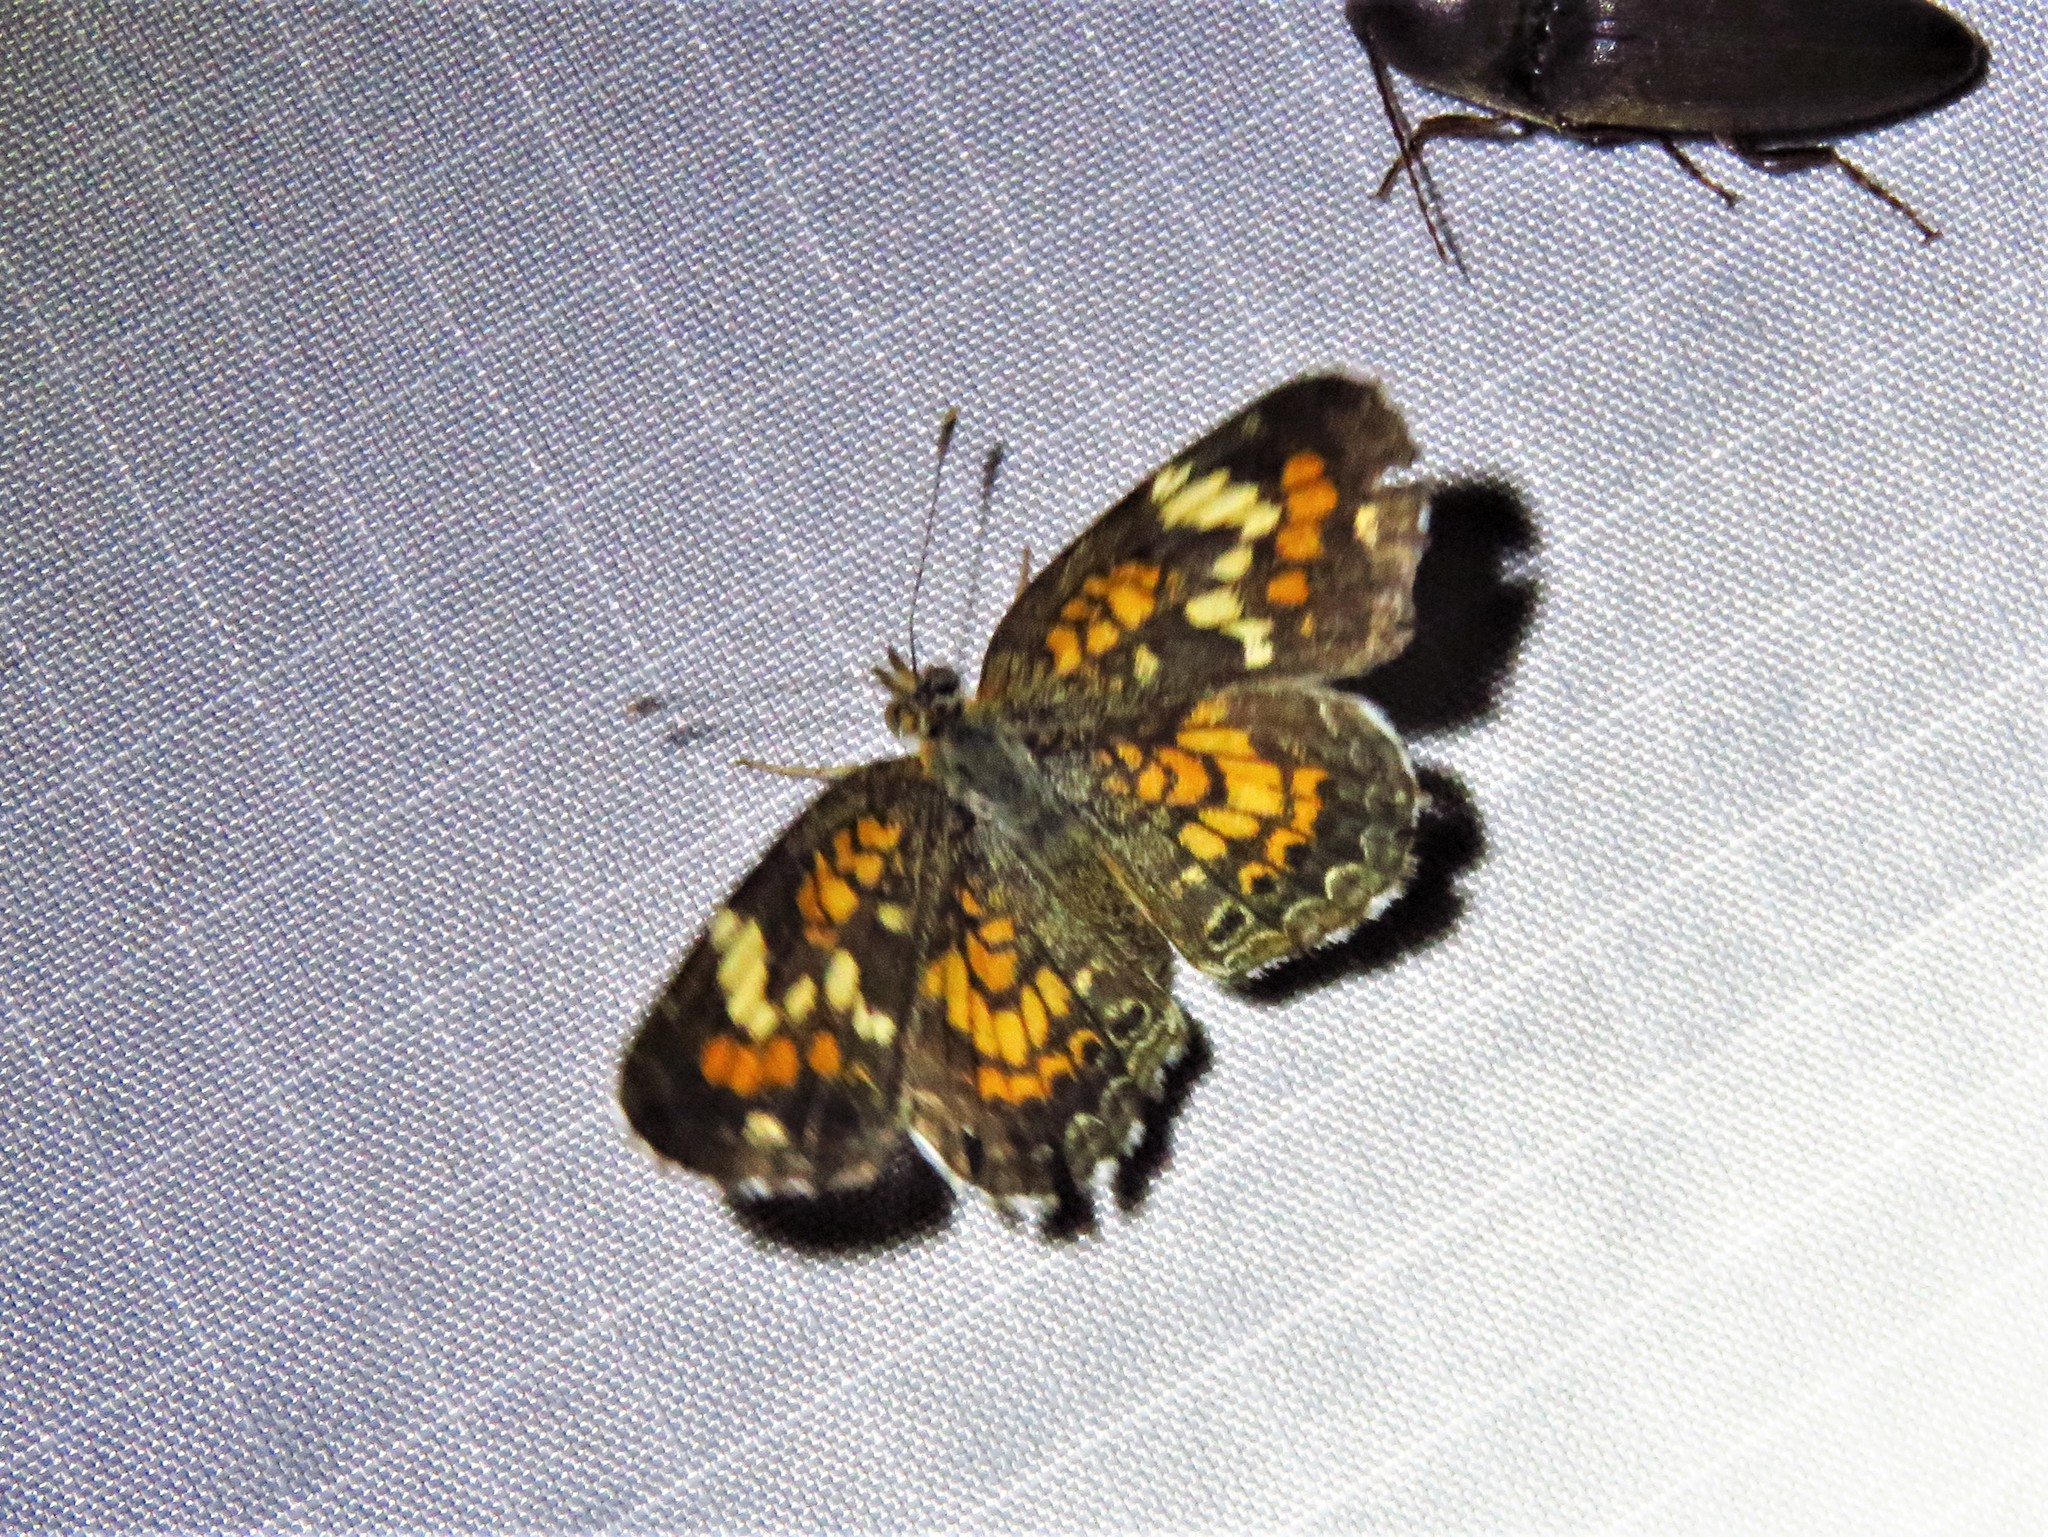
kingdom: Animalia
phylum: Arthropoda
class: Insecta
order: Lepidoptera
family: Nymphalidae
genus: Phyciodes
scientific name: Phyciodes phaon
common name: Phaon crescent
